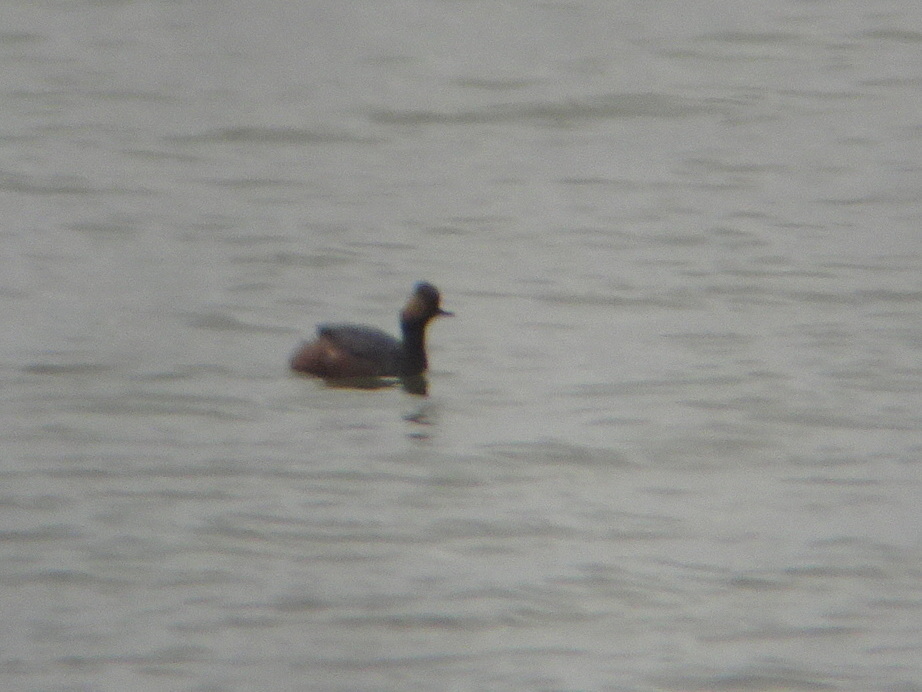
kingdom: Animalia
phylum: Chordata
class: Aves
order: Podicipediformes
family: Podicipedidae
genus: Podiceps
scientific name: Podiceps nigricollis
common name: Black-necked grebe
